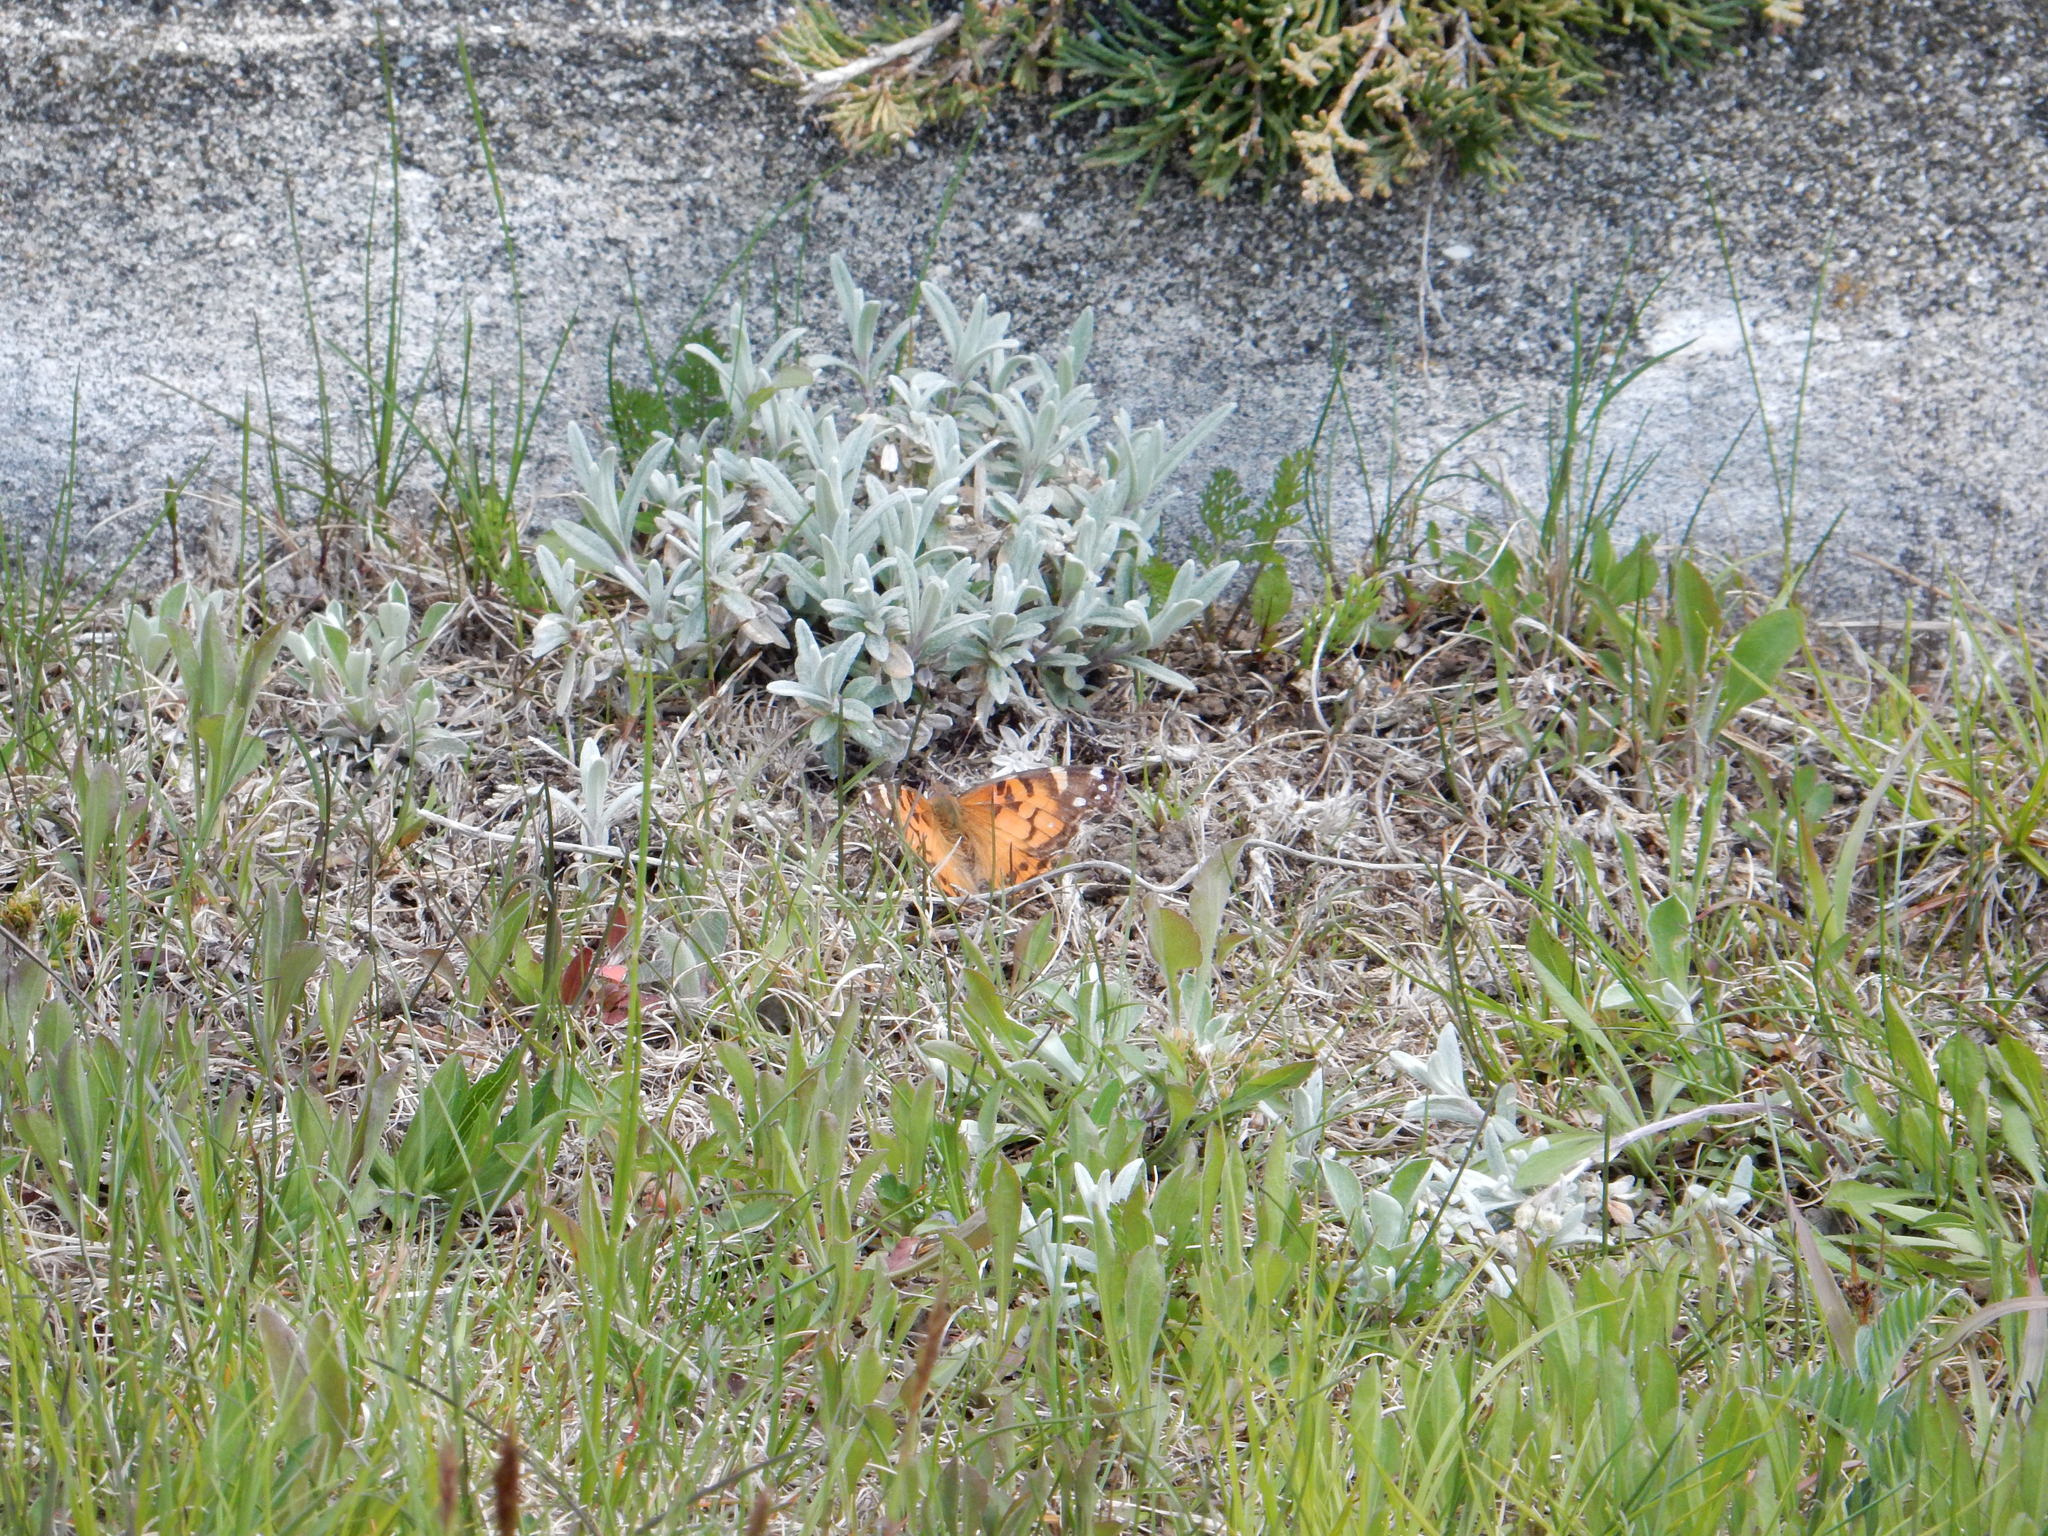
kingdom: Animalia
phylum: Arthropoda
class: Insecta
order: Lepidoptera
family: Nymphalidae
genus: Vanessa
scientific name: Vanessa virginiensis
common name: American lady
